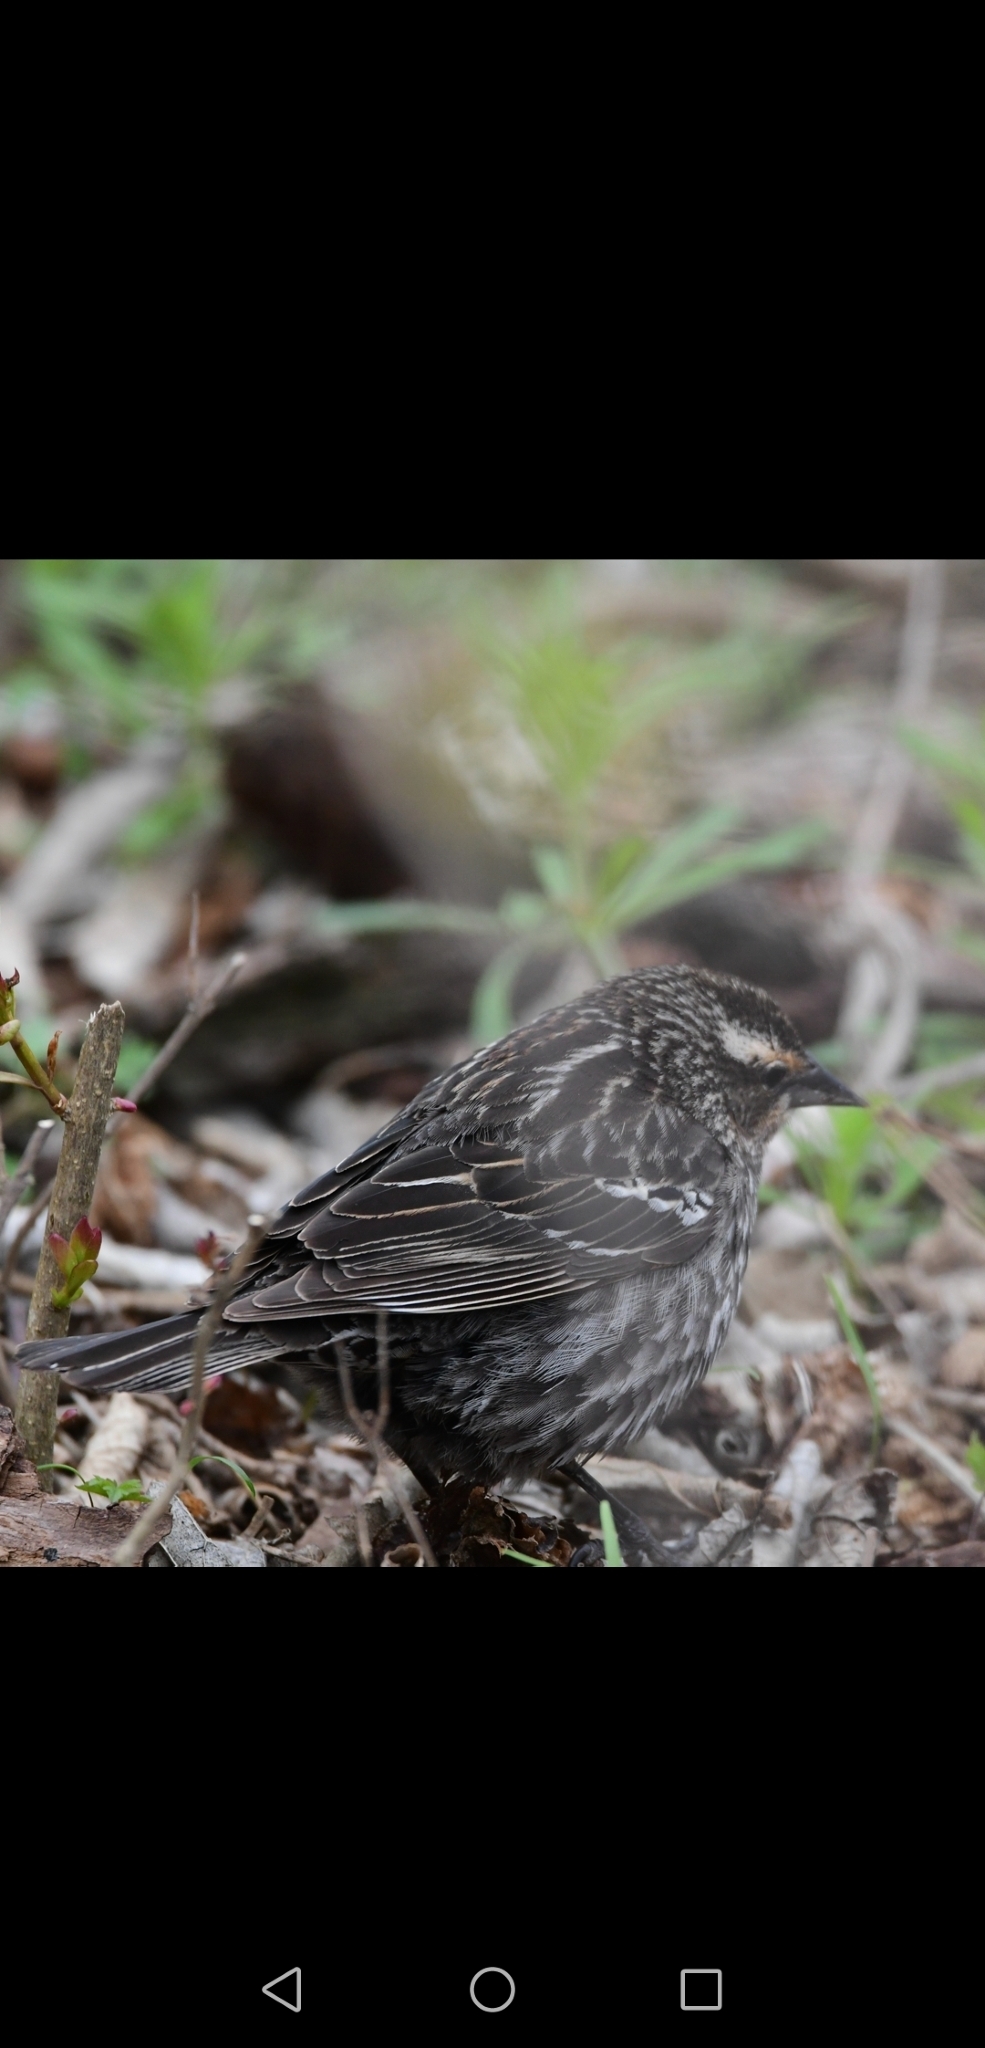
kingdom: Animalia
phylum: Chordata
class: Aves
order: Passeriformes
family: Icteridae
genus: Agelaius
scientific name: Agelaius phoeniceus
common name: Red-winged blackbird
